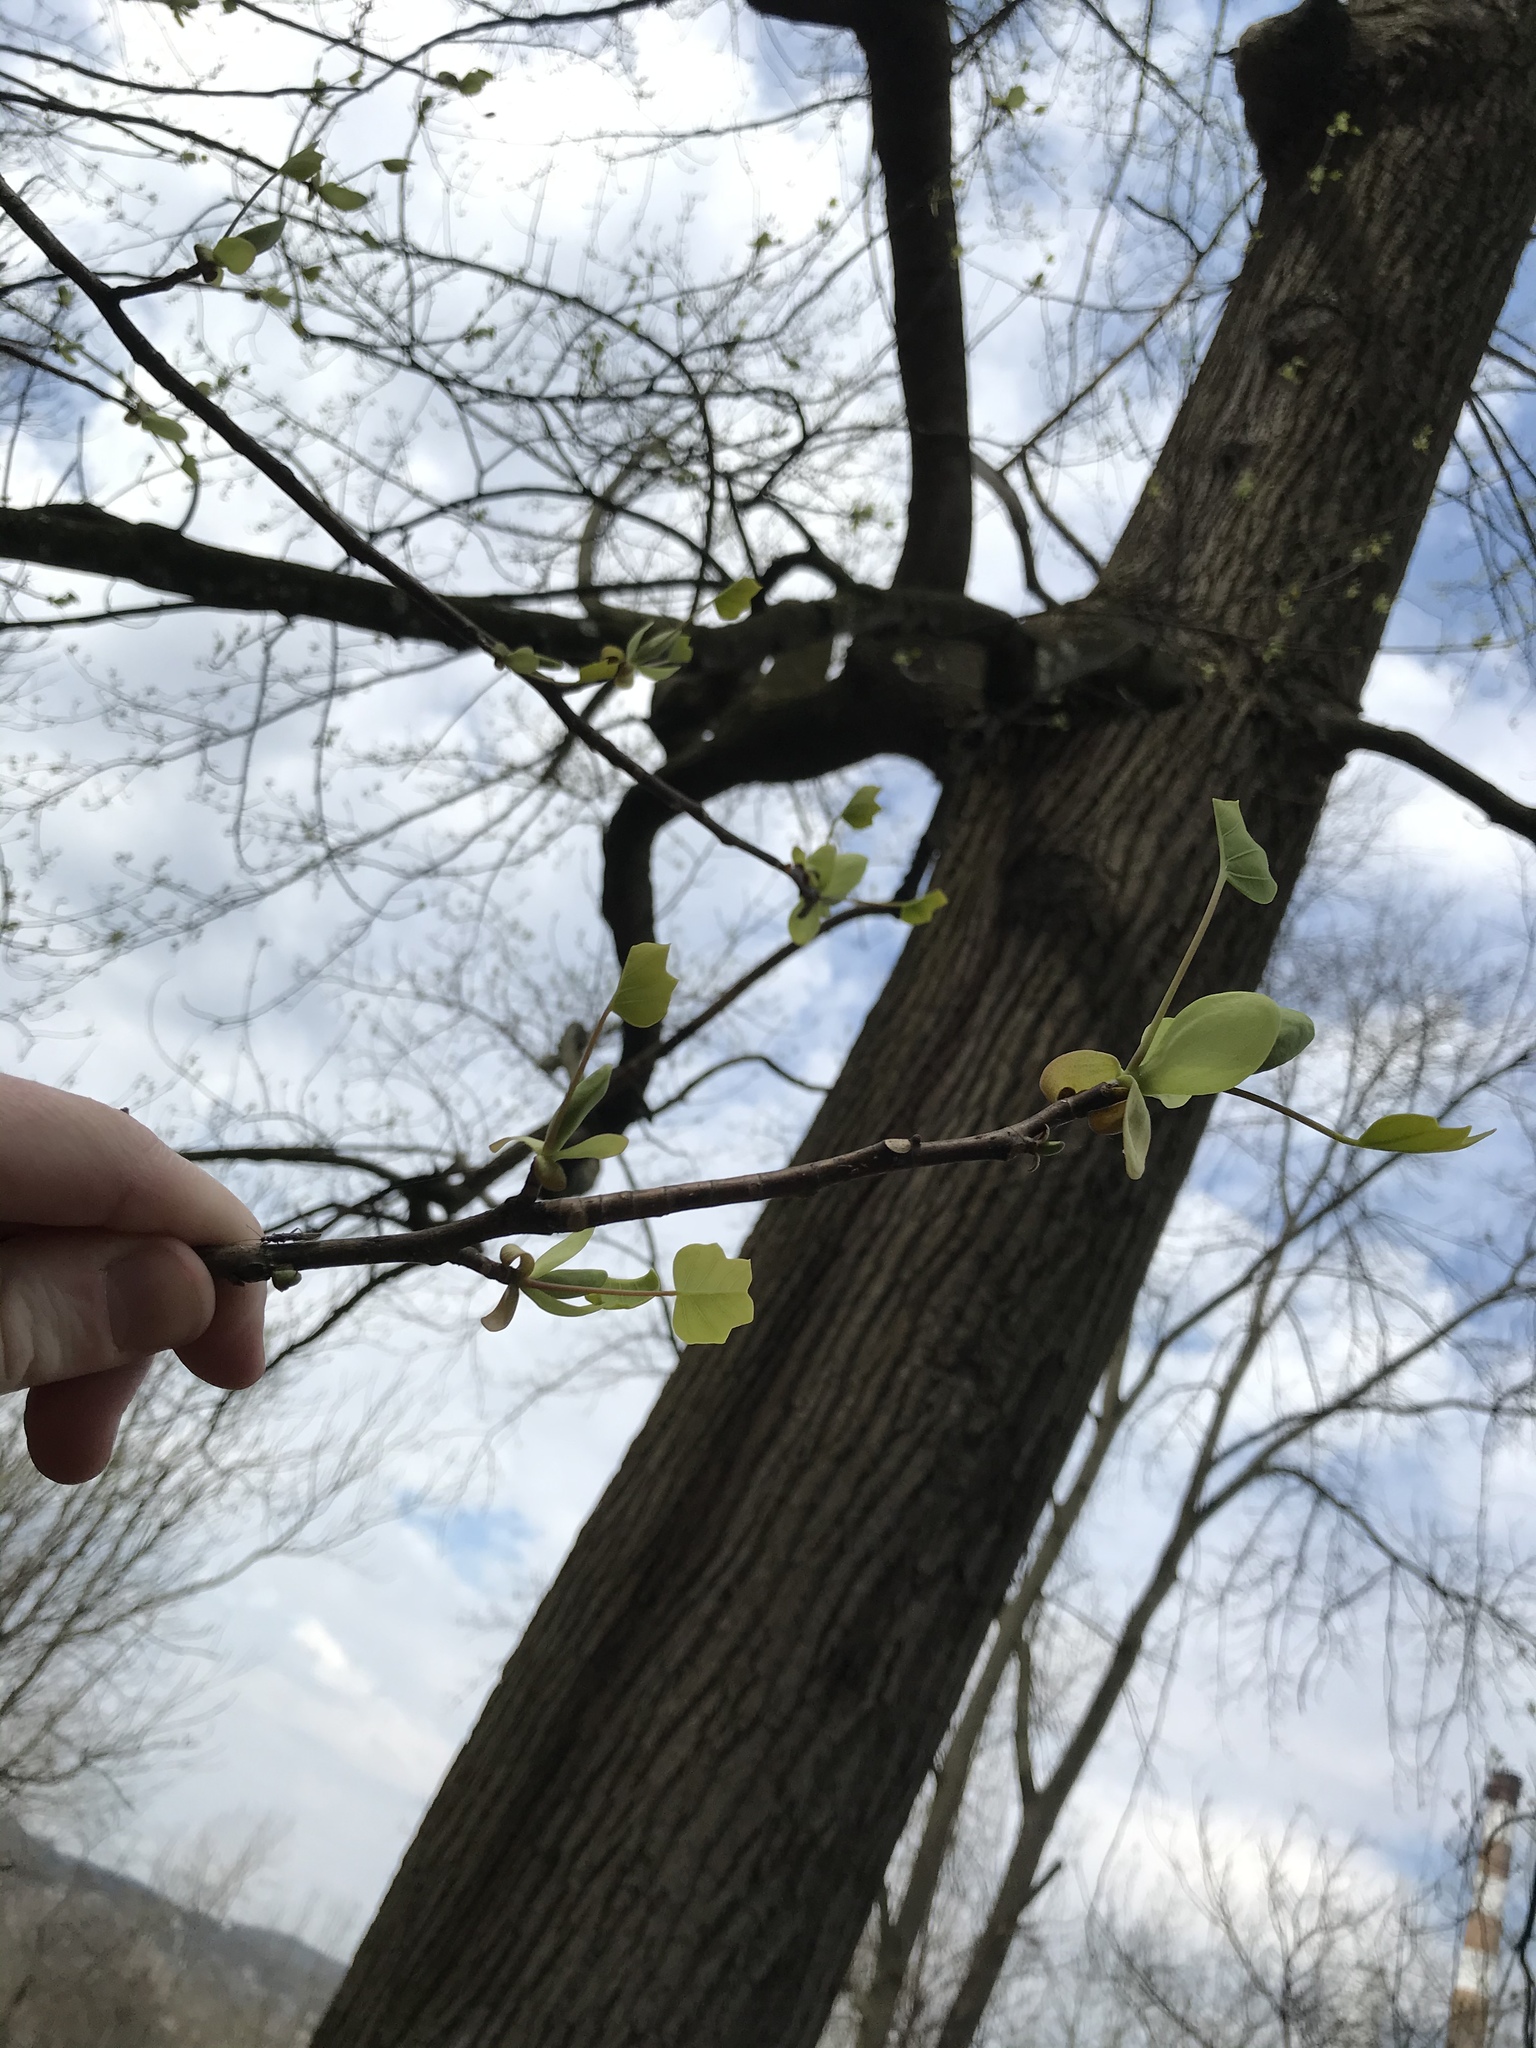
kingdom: Plantae
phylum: Tracheophyta
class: Magnoliopsida
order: Magnoliales
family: Magnoliaceae
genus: Liriodendron
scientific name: Liriodendron tulipifera
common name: Tulip tree
